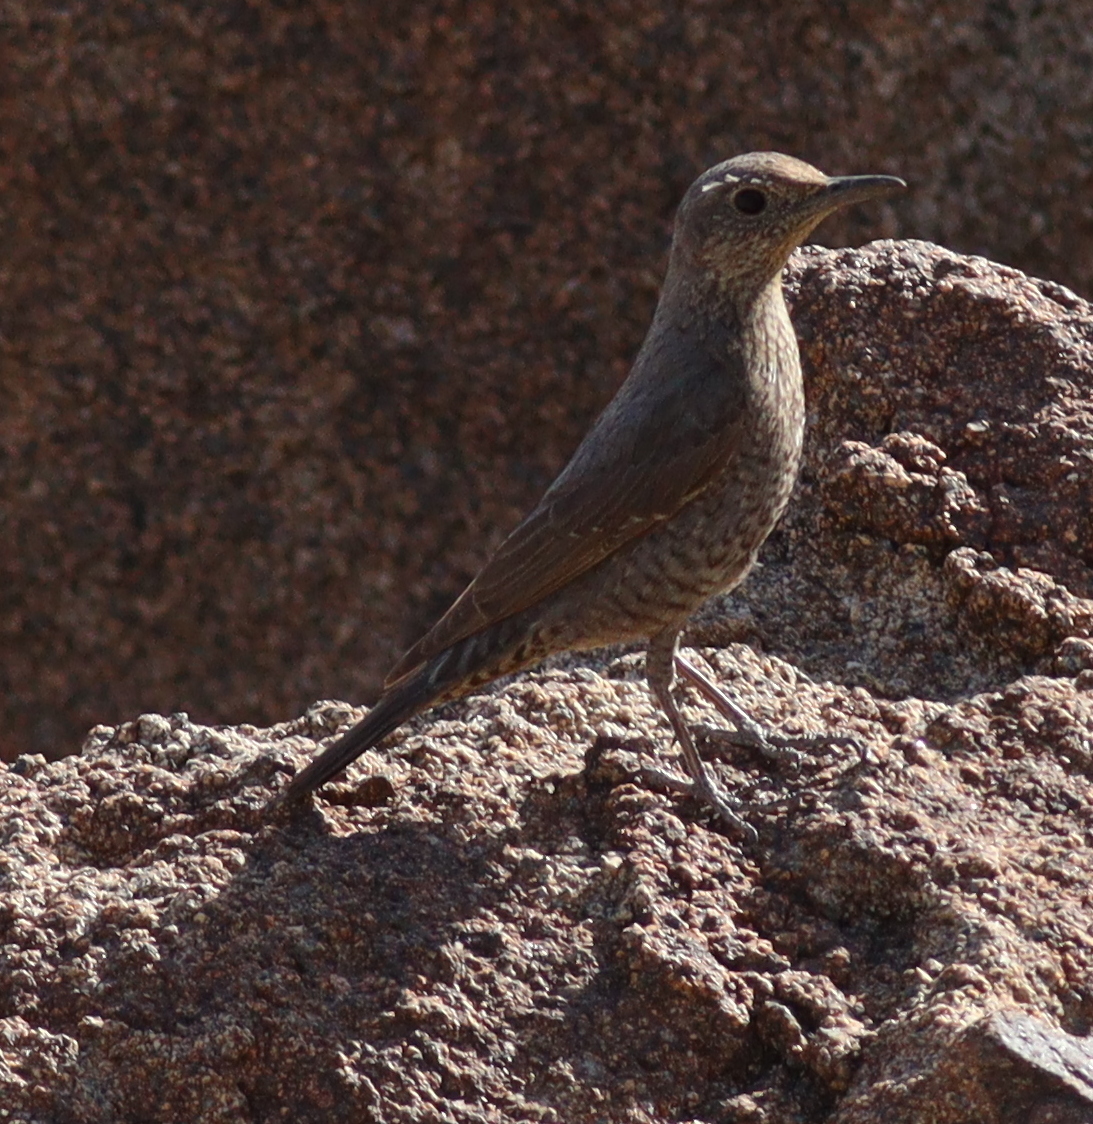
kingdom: Animalia
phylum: Chordata
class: Aves
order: Passeriformes
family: Muscicapidae
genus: Monticola
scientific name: Monticola solitarius
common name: Blue rock thrush
